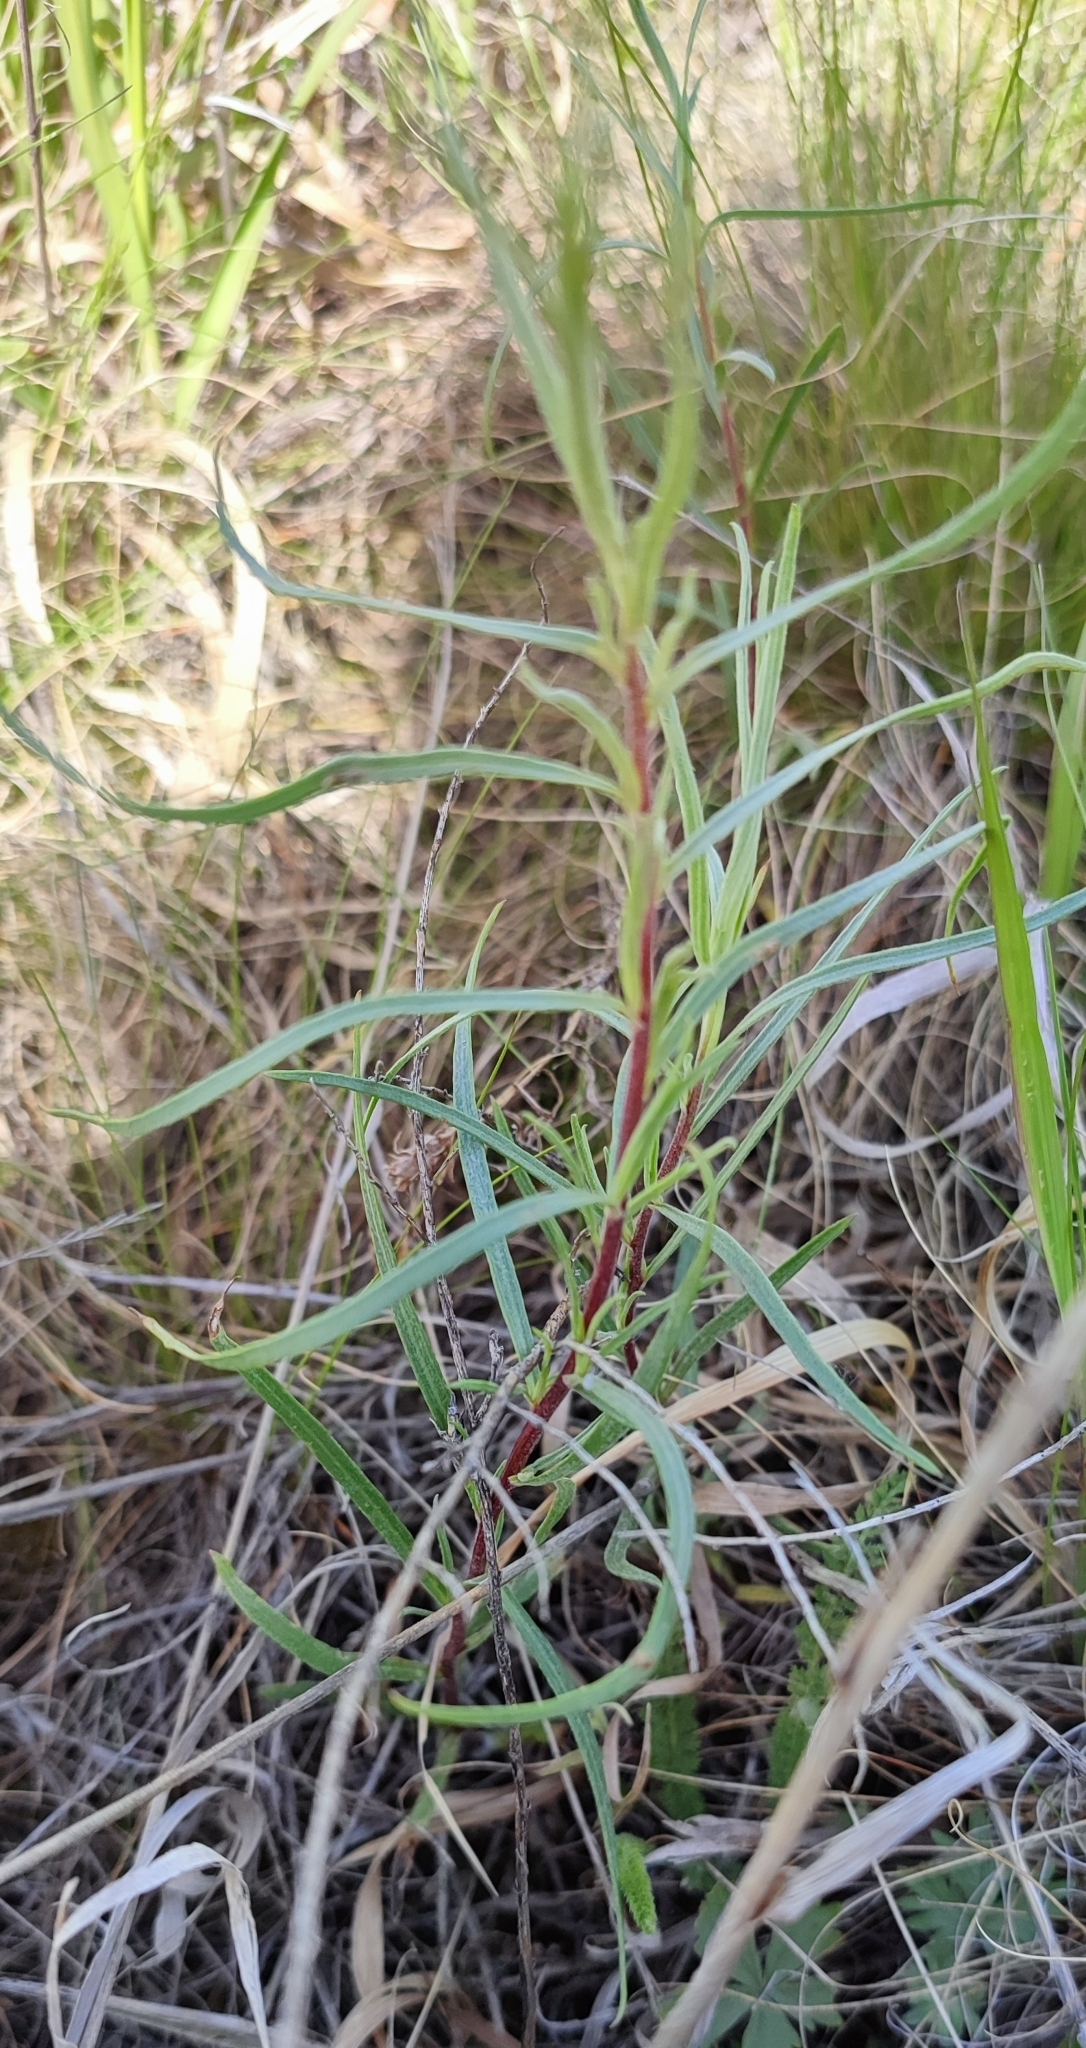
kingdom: Plantae
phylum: Tracheophyta
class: Magnoliopsida
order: Asterales
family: Asteraceae
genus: Artemisia
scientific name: Artemisia dracunculus
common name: Tarragon
